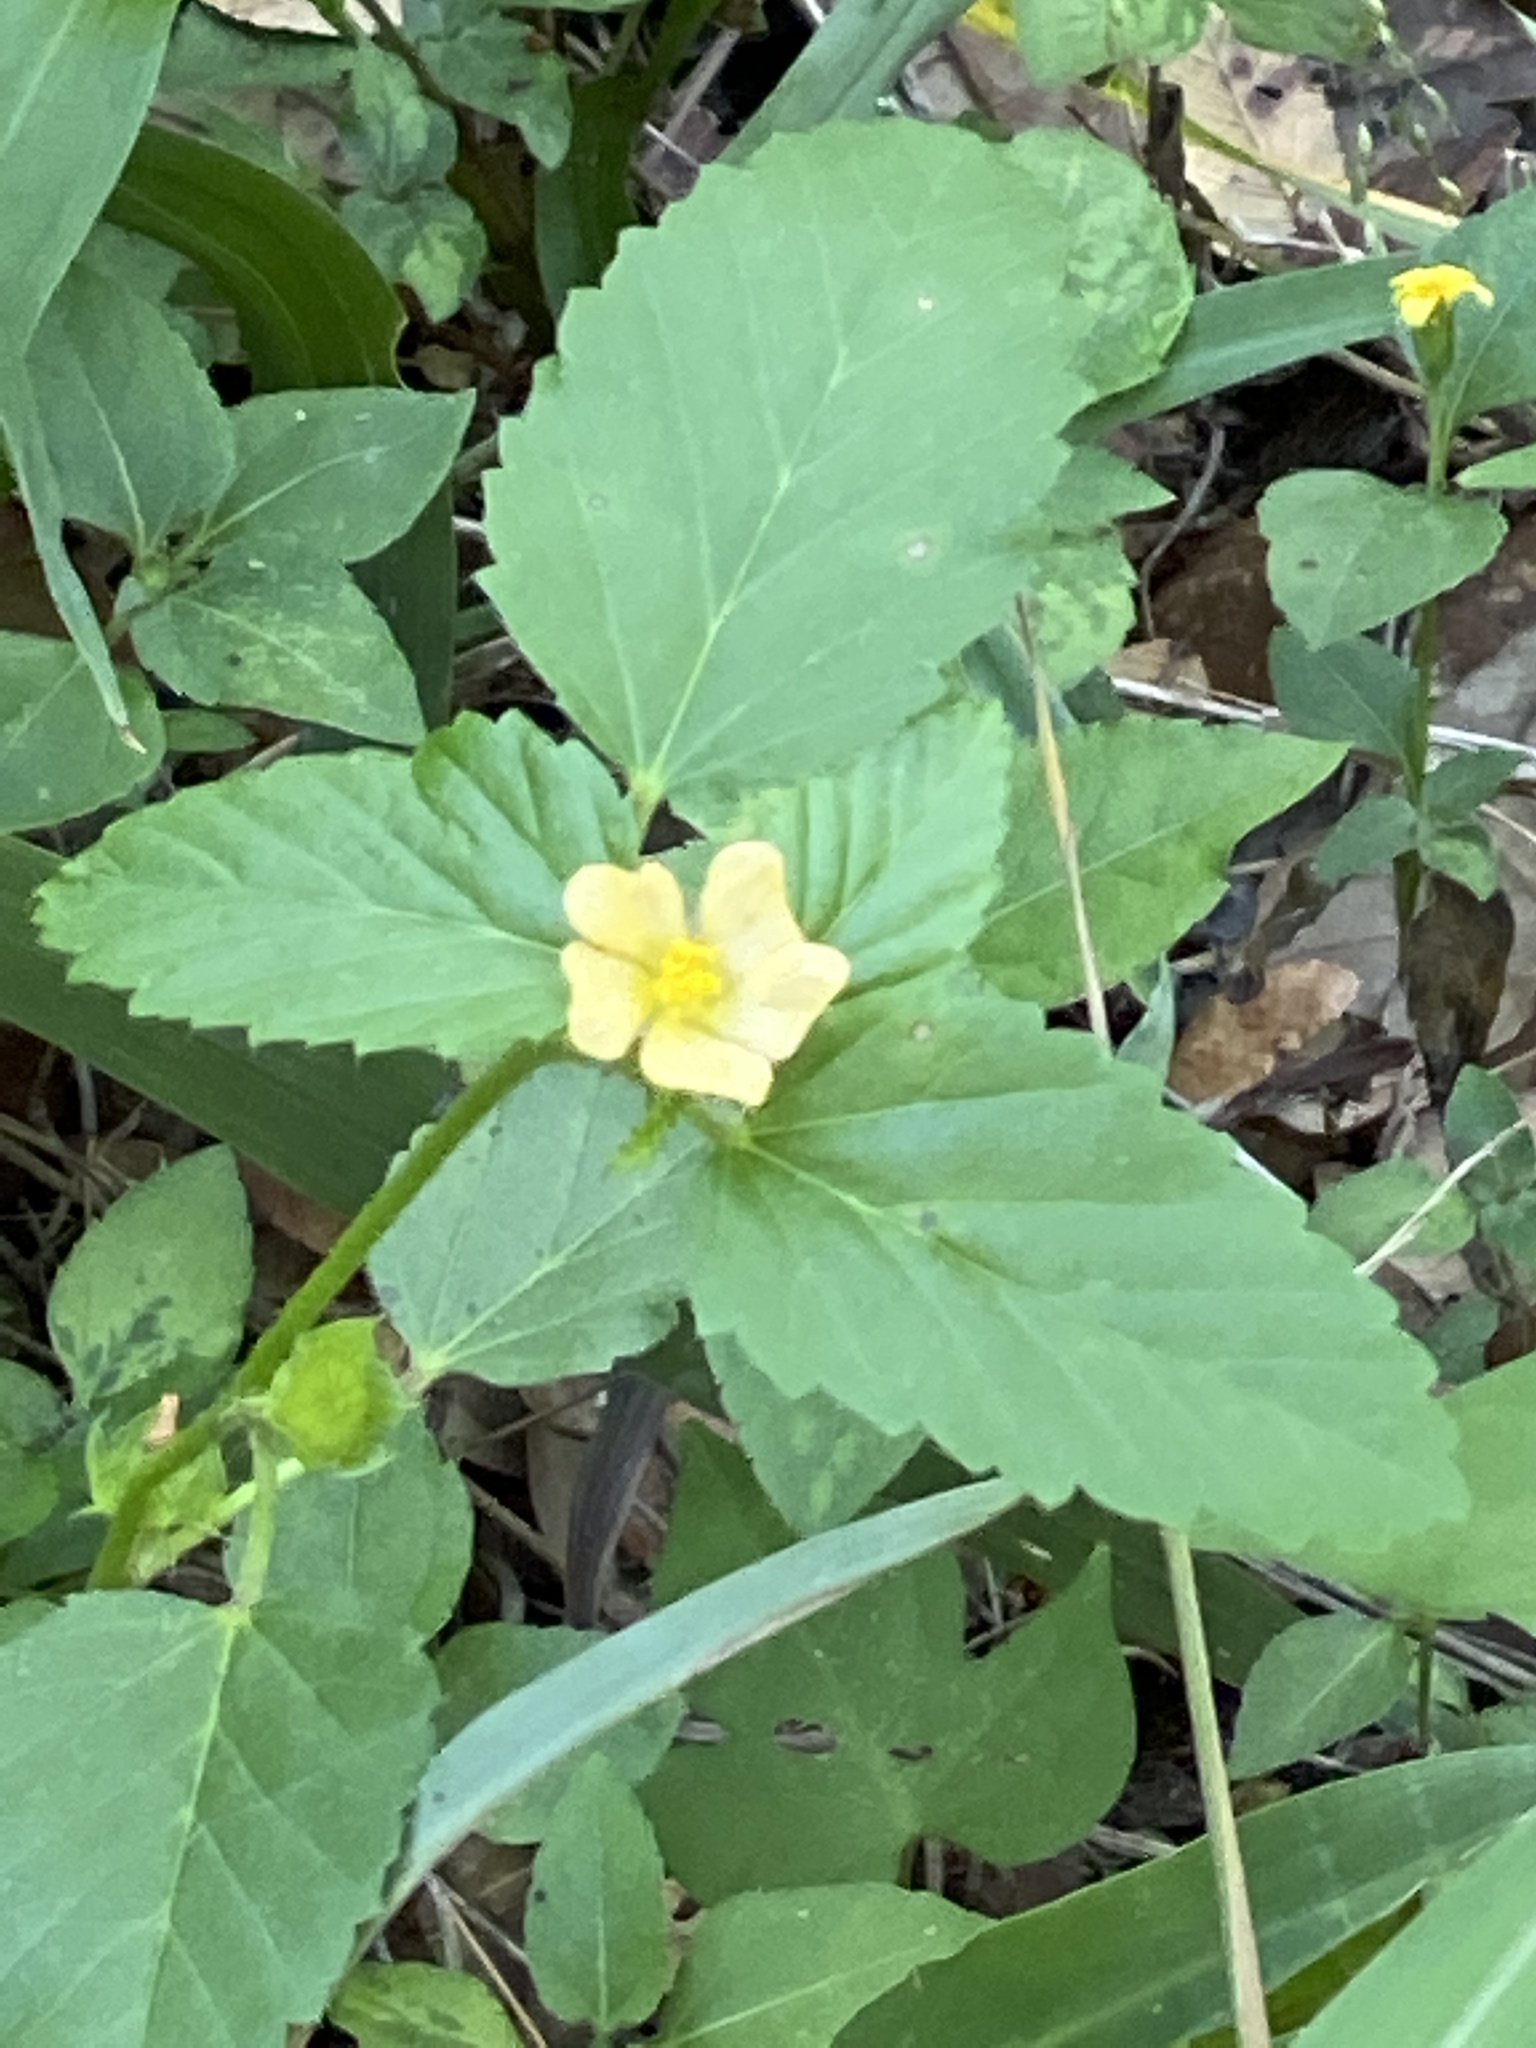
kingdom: Plantae
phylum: Tracheophyta
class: Magnoliopsida
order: Malvales
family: Malvaceae
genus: Malvastrum
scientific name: Malvastrum coromandelianum
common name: Threelobe false mallow
